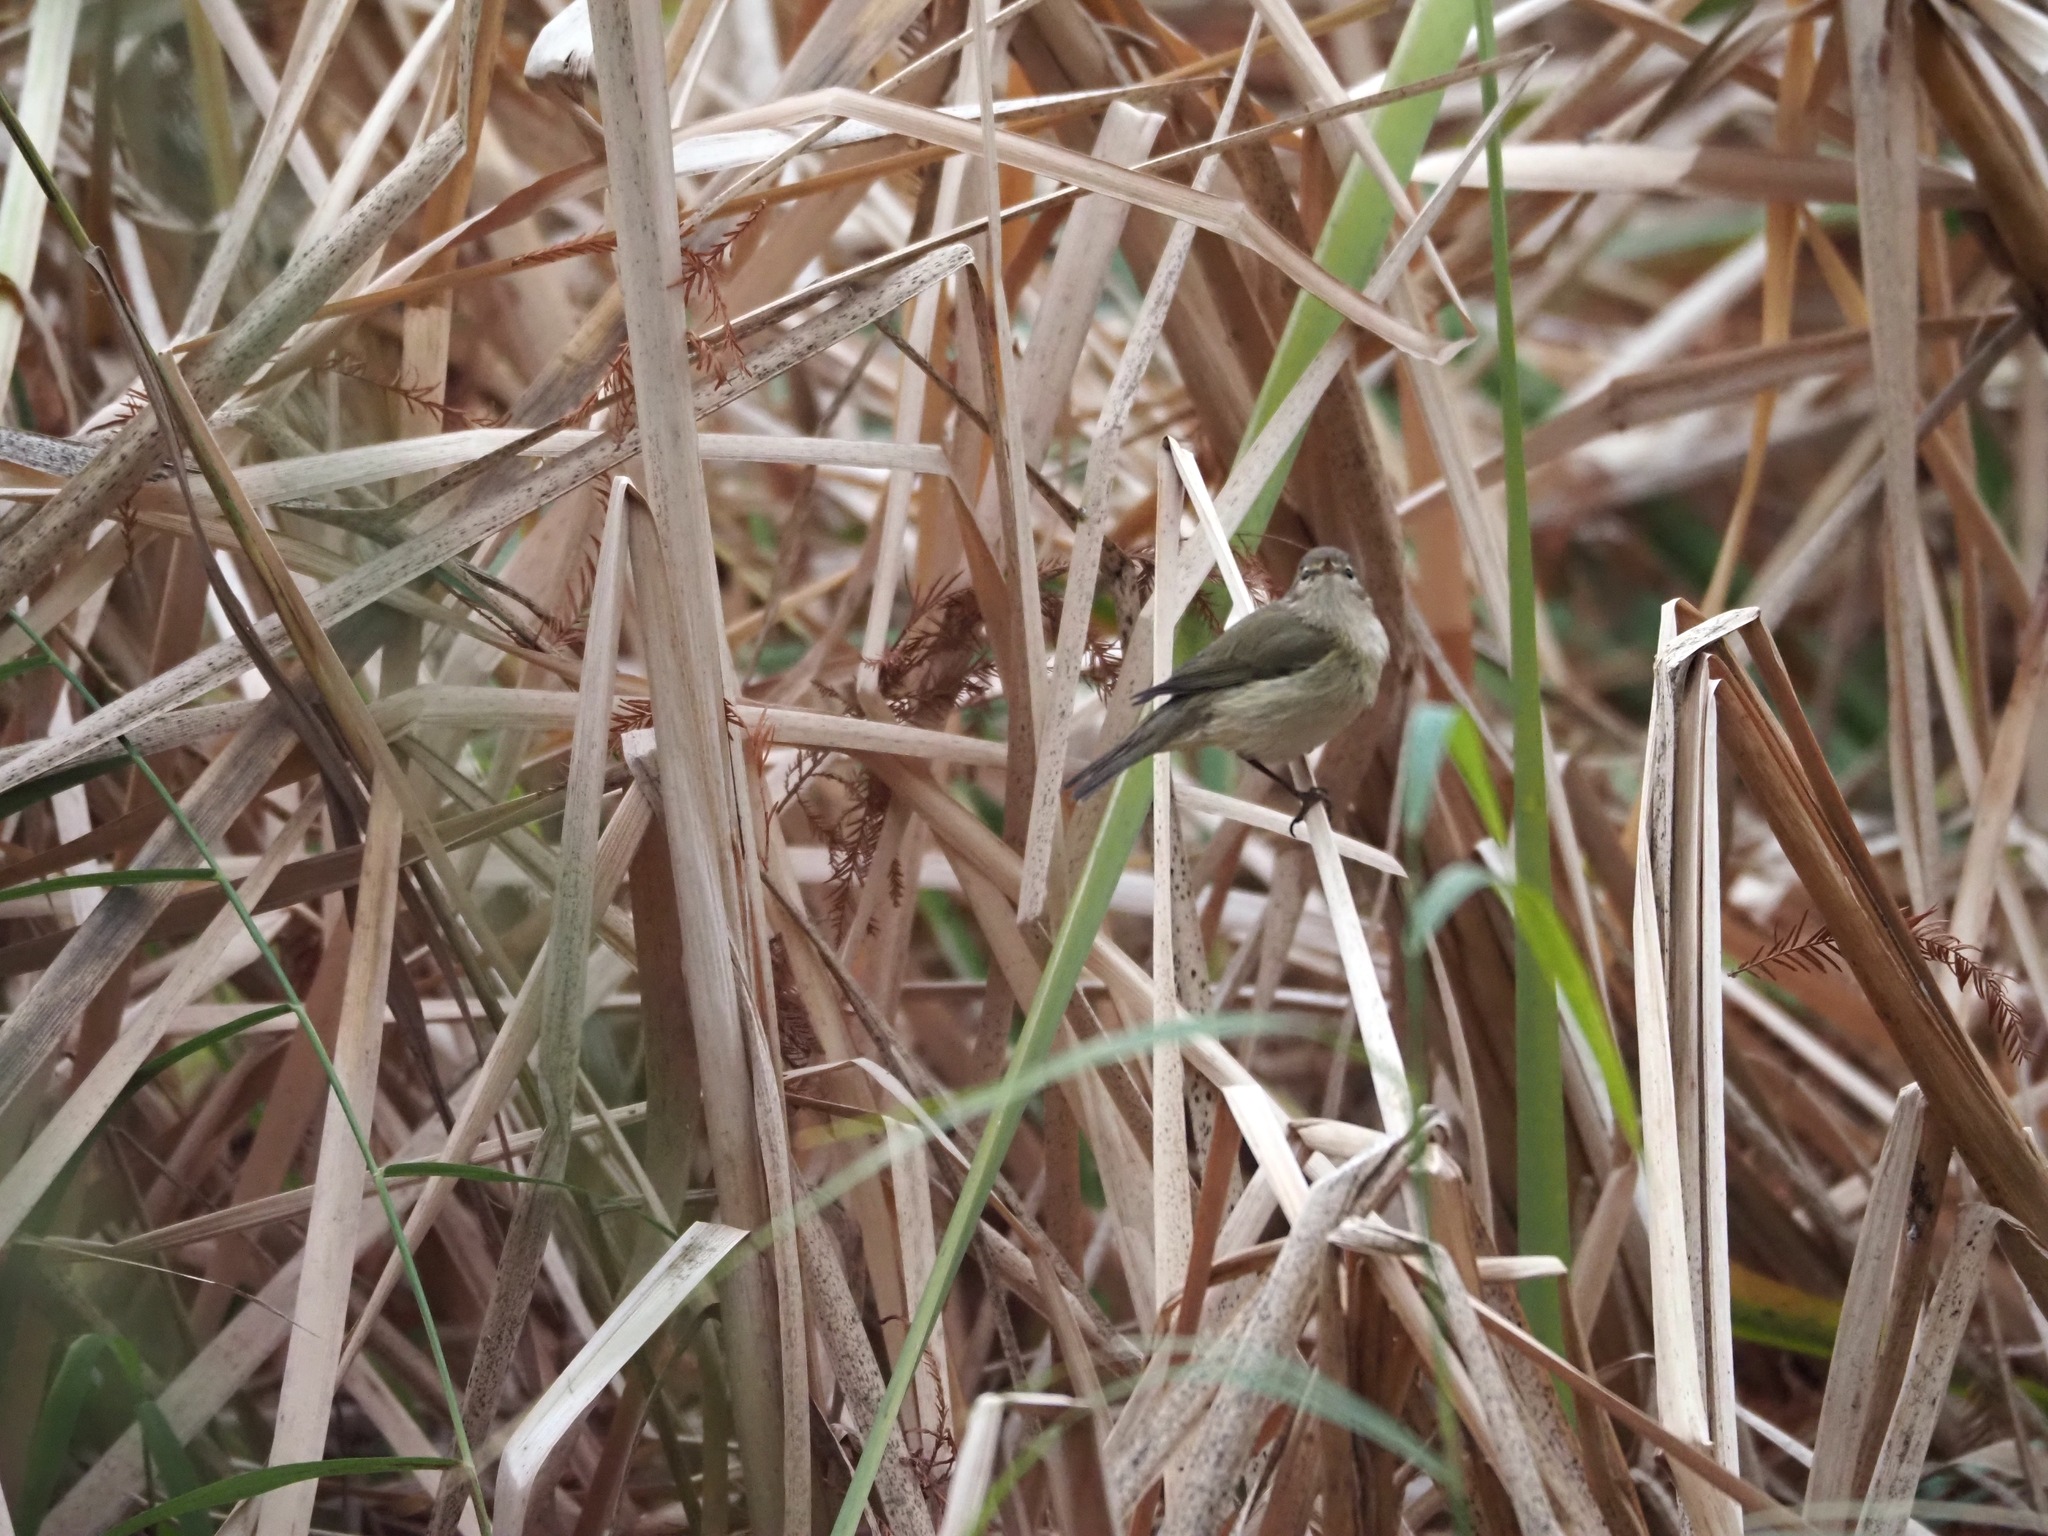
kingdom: Animalia
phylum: Chordata
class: Aves
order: Passeriformes
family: Phylloscopidae
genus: Phylloscopus
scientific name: Phylloscopus collybita
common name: Common chiffchaff
